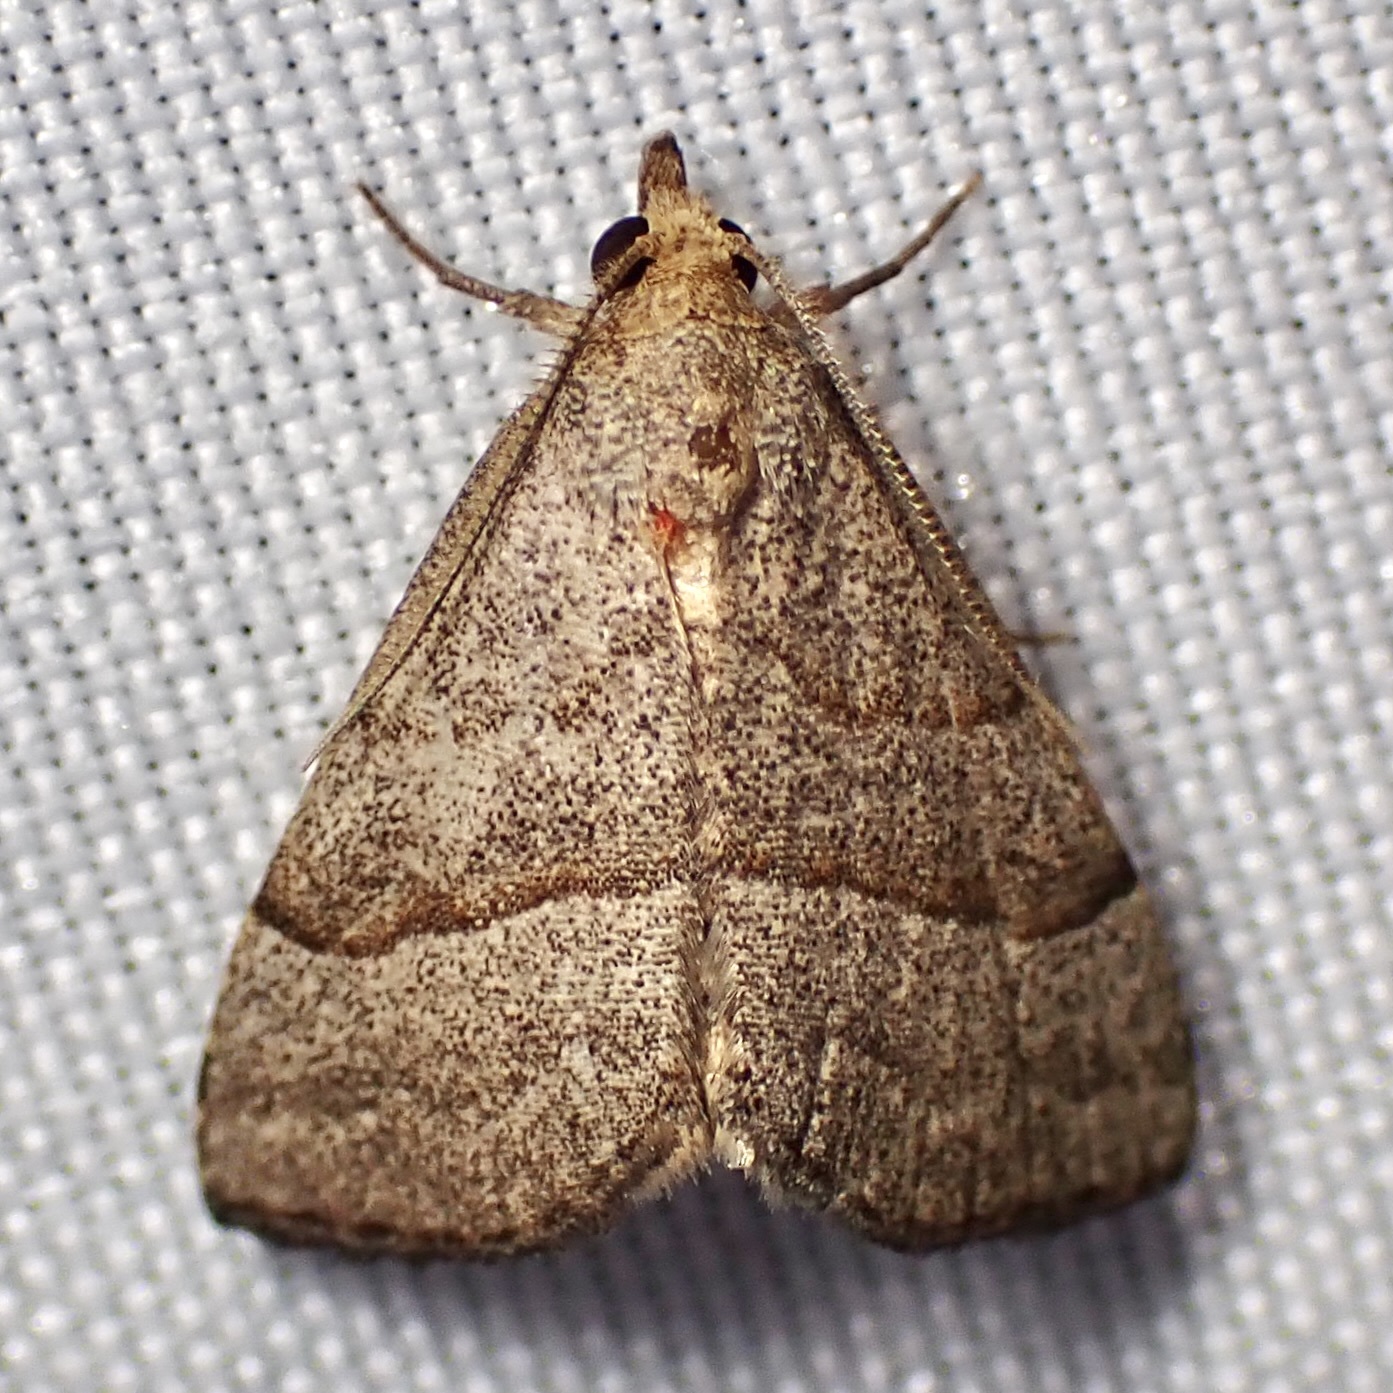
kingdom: Animalia
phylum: Arthropoda
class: Insecta
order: Lepidoptera
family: Erebidae
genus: Zelicodes
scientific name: Zelicodes linearis
